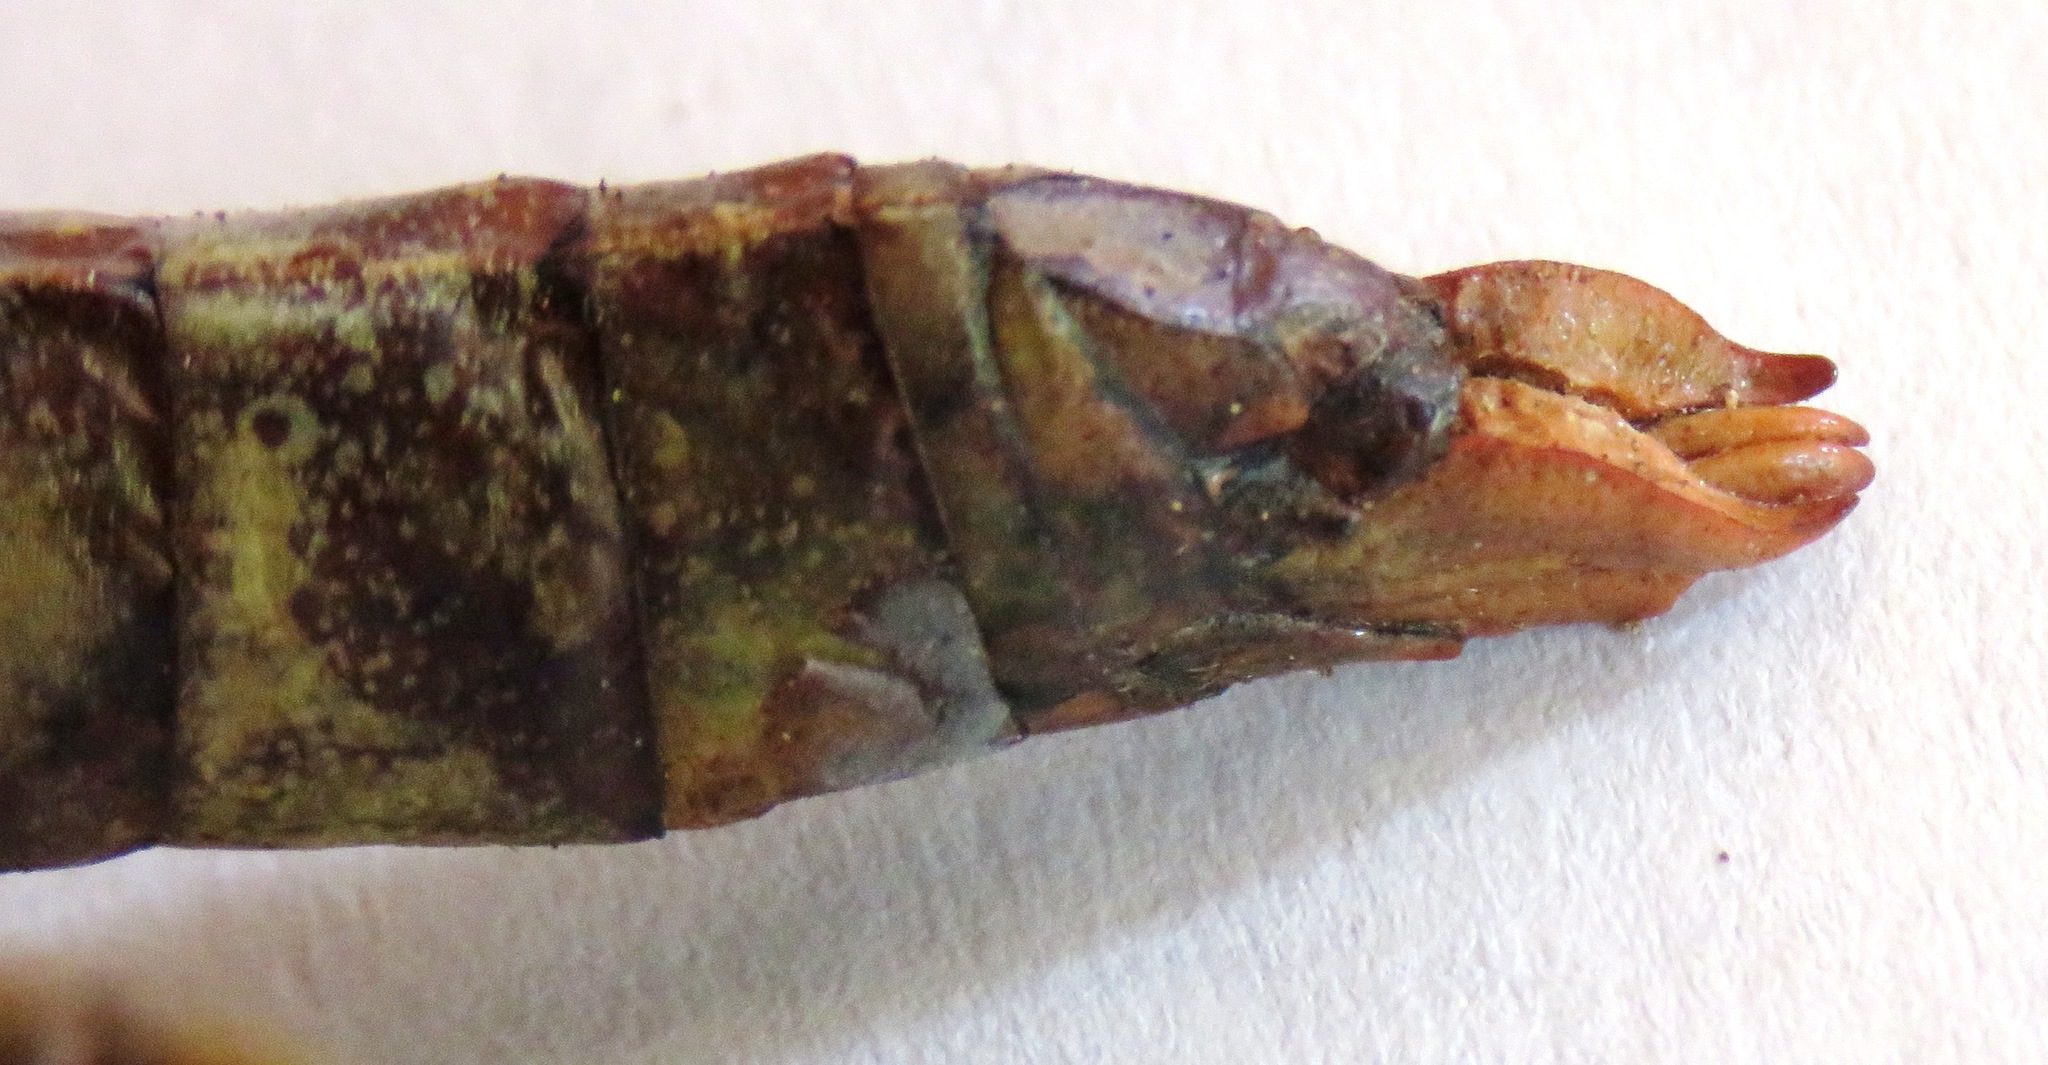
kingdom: Animalia
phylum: Arthropoda
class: Insecta
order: Orthoptera
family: Romaleidae
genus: Titanacris
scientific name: Titanacris albipes
